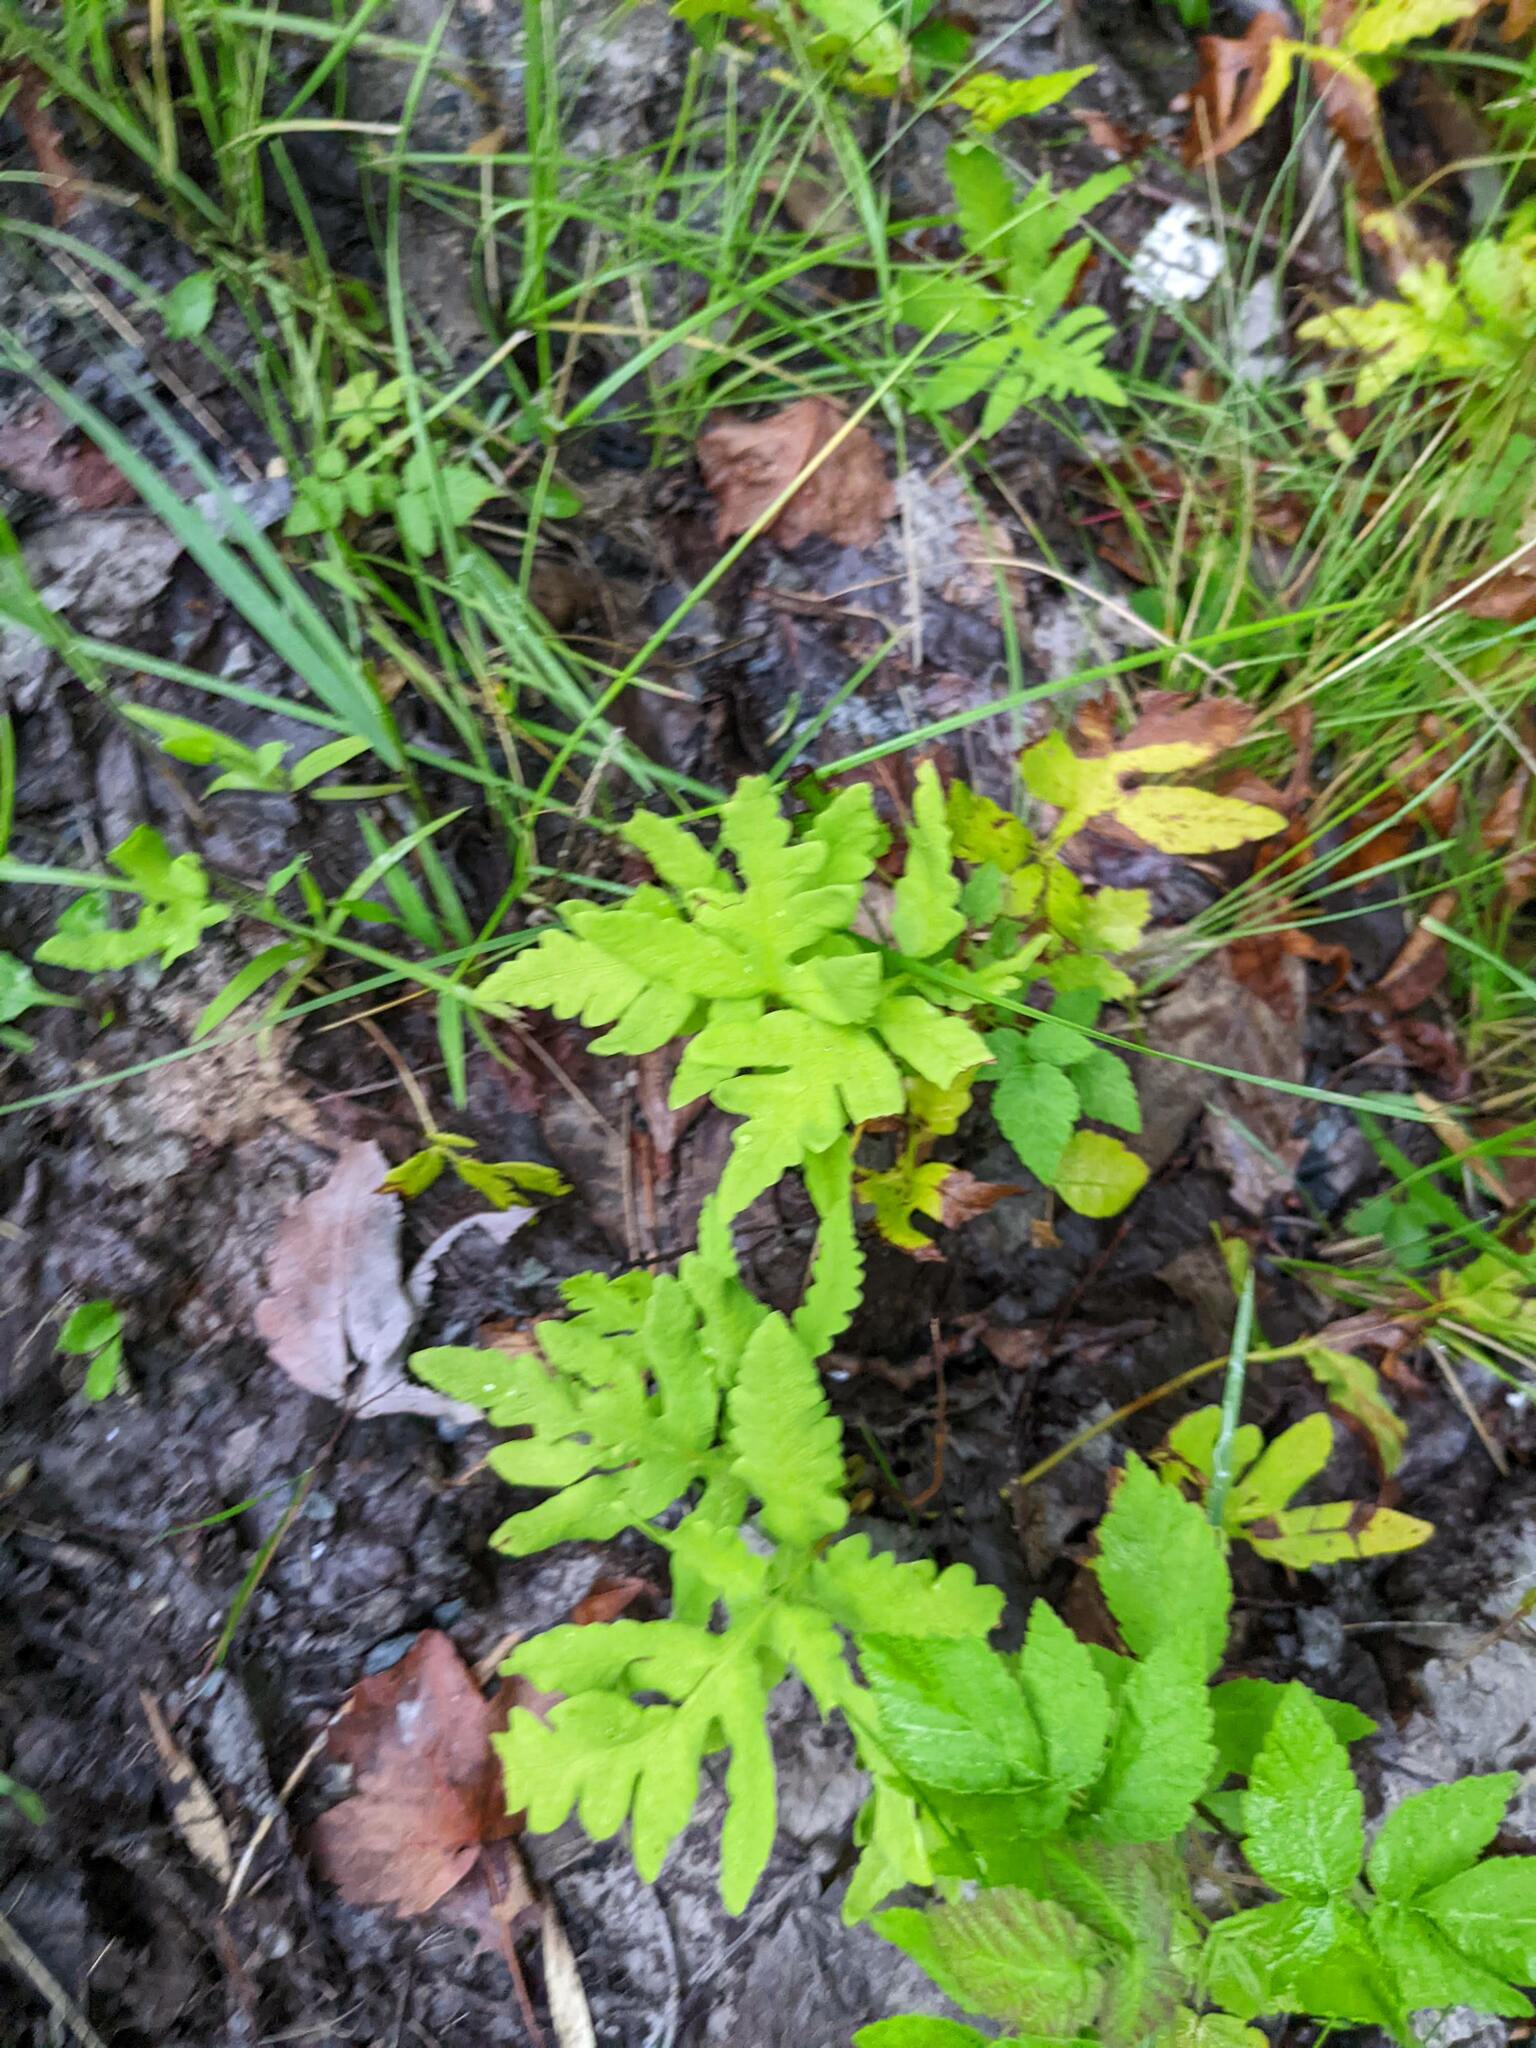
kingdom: Plantae
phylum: Tracheophyta
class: Polypodiopsida
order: Polypodiales
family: Onocleaceae
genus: Onoclea
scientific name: Onoclea sensibilis
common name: Sensitive fern
